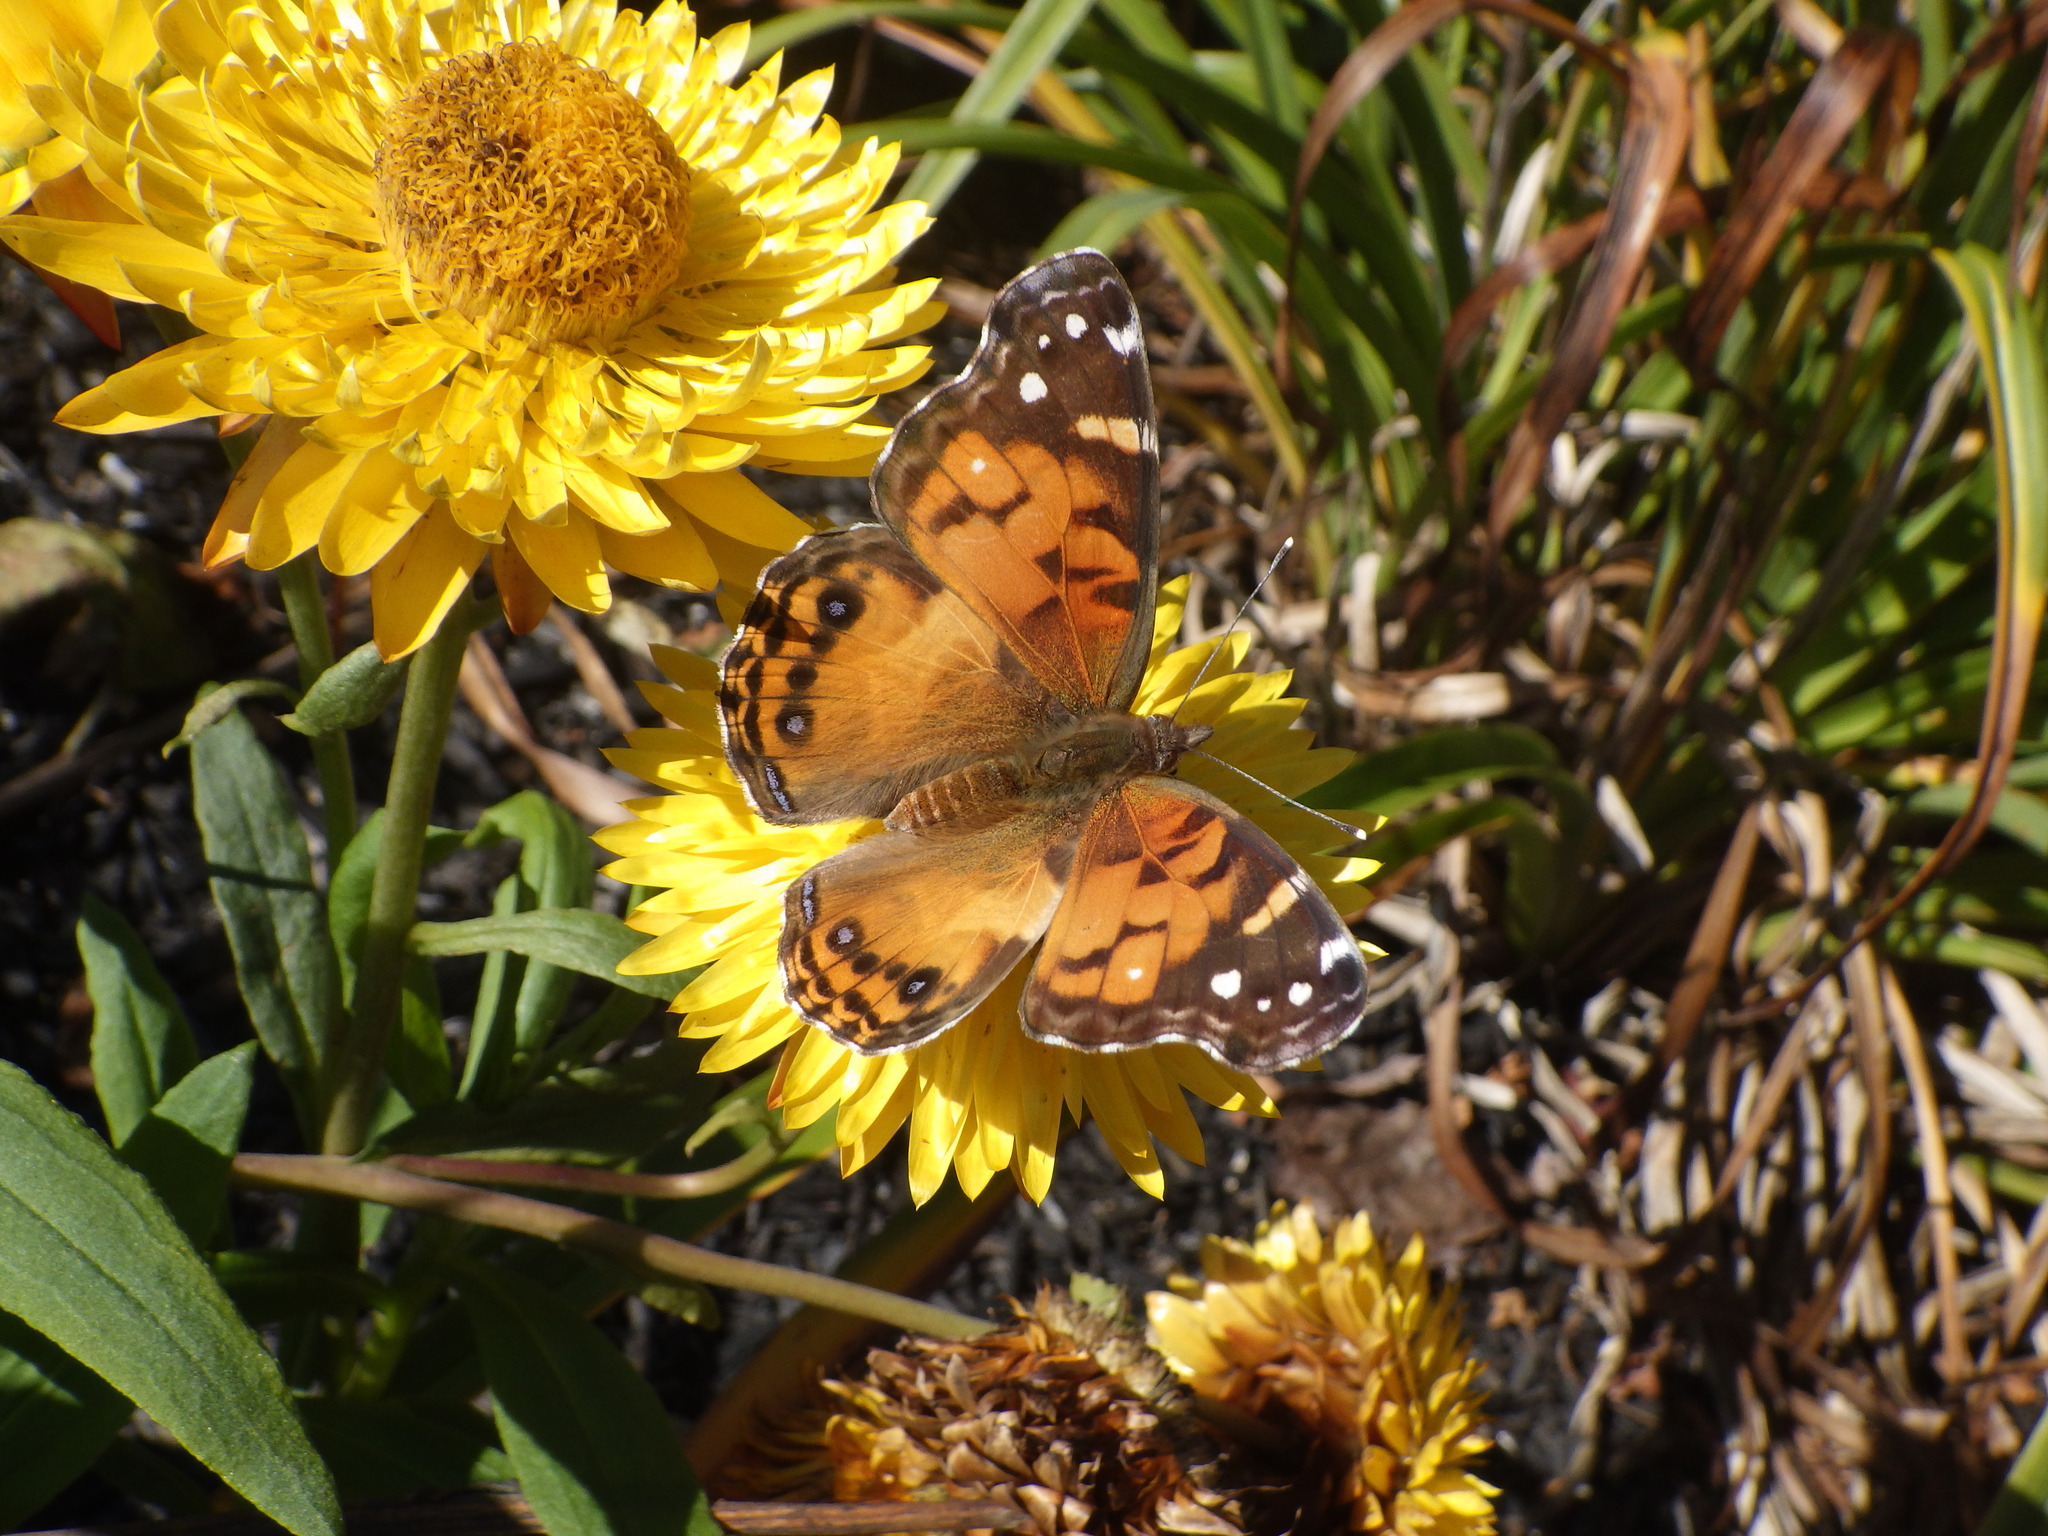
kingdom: Animalia
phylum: Arthropoda
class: Insecta
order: Lepidoptera
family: Nymphalidae
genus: Vanessa
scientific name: Vanessa virginiensis
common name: American lady
